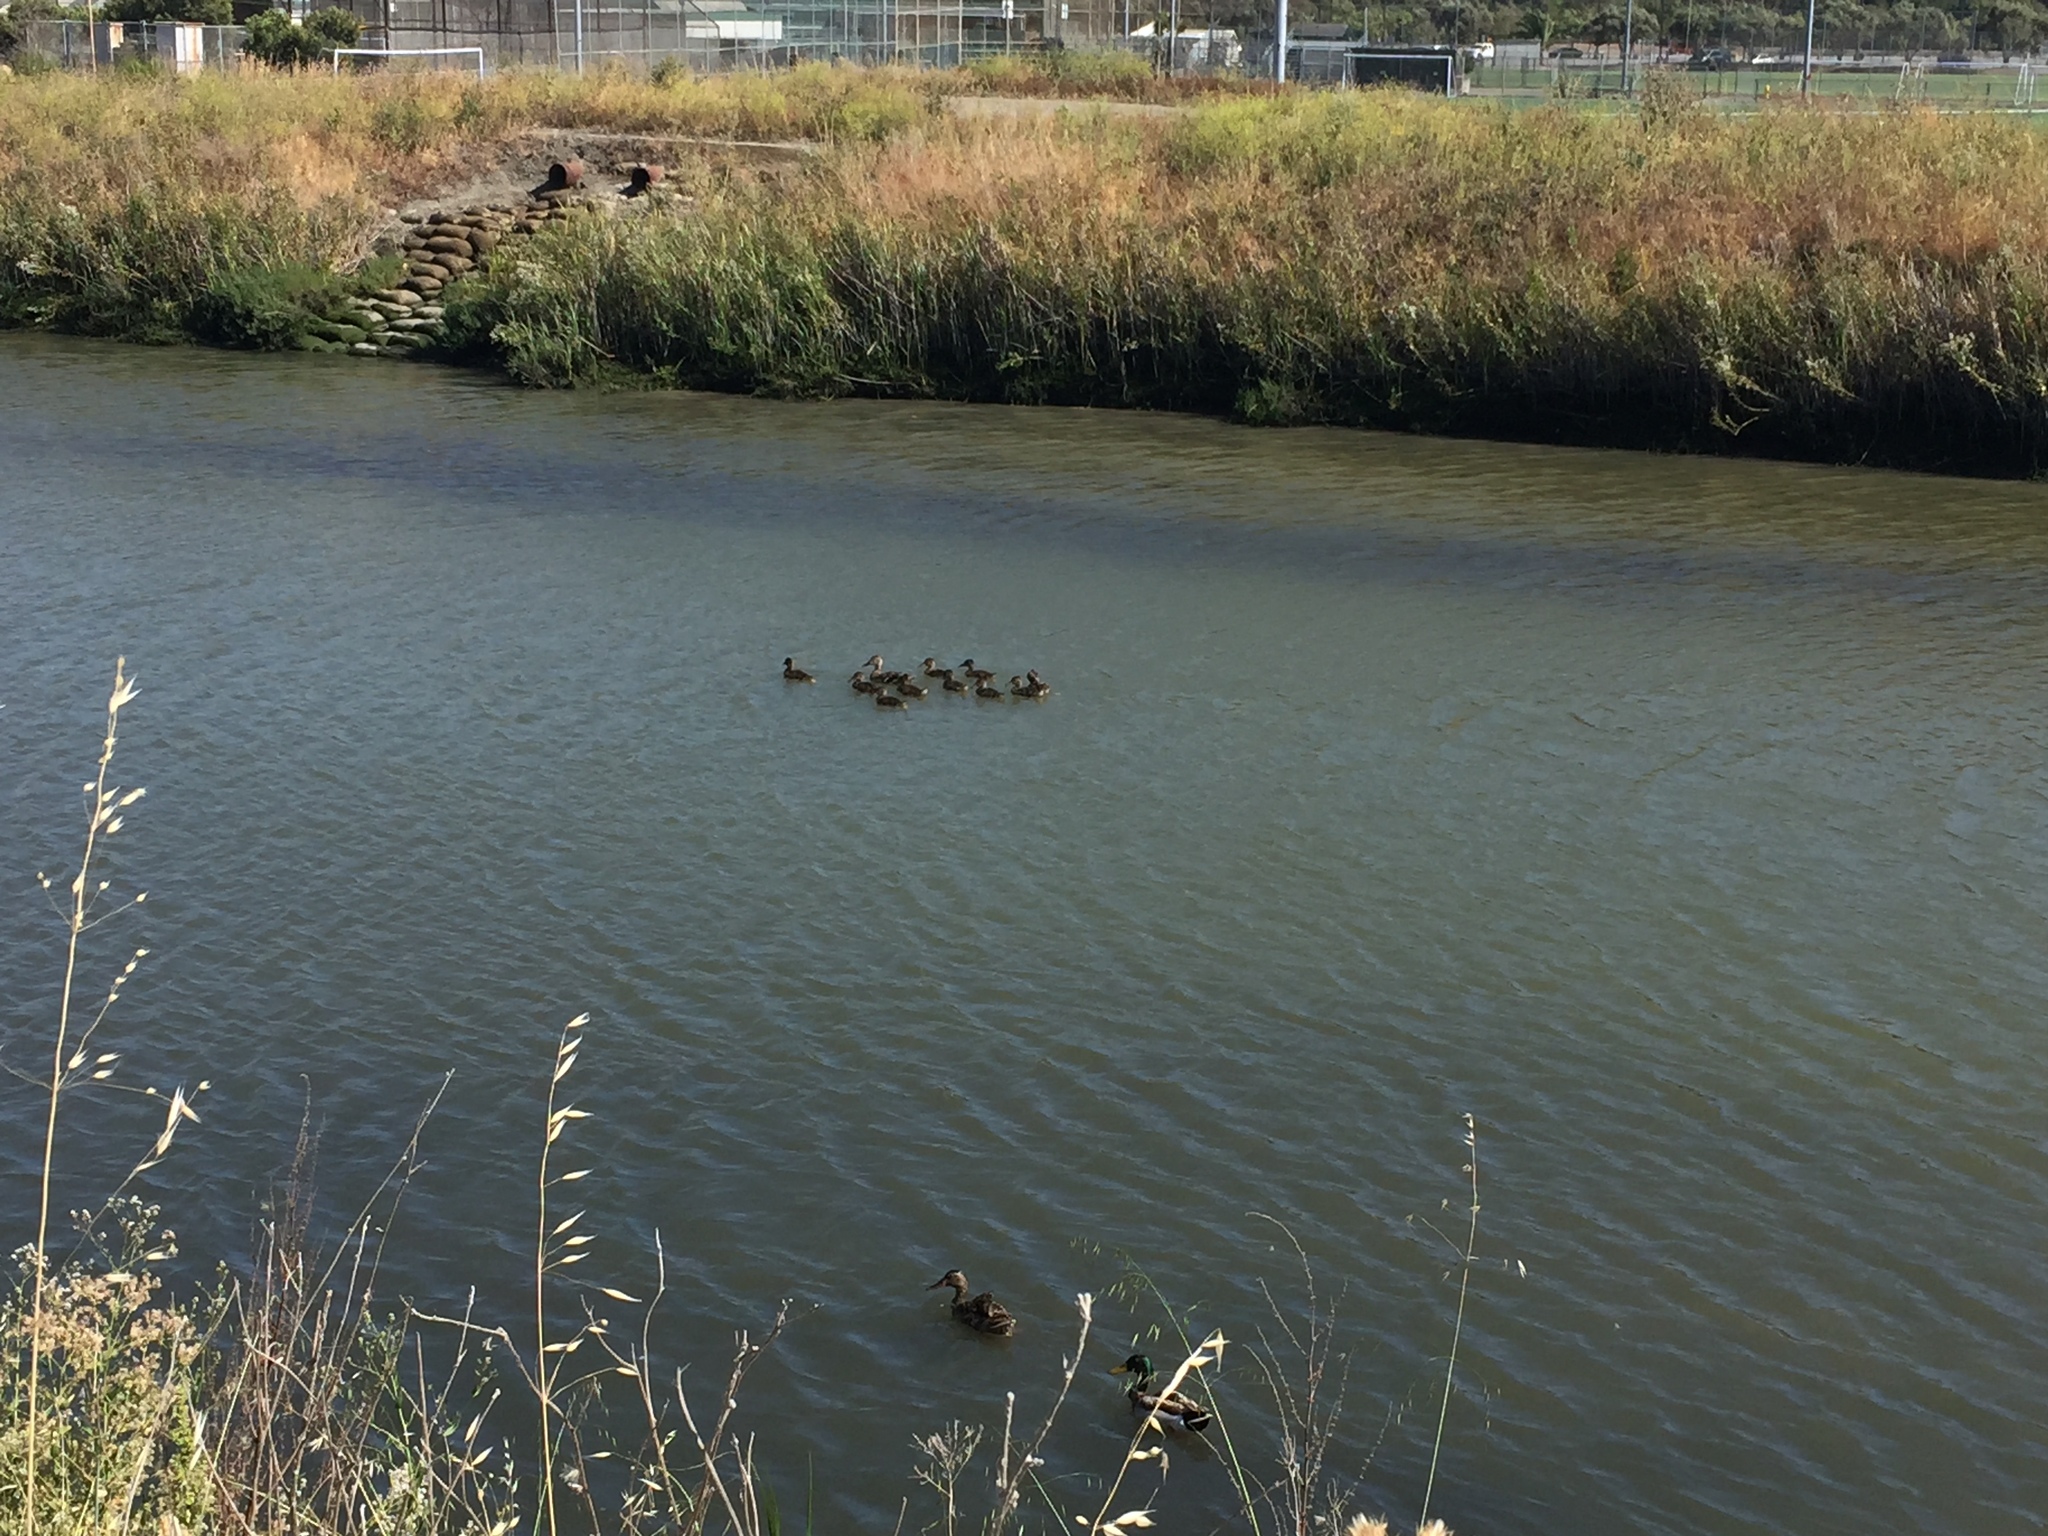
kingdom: Animalia
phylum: Chordata
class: Aves
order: Anseriformes
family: Anatidae
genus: Anas
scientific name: Anas platyrhynchos
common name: Mallard
